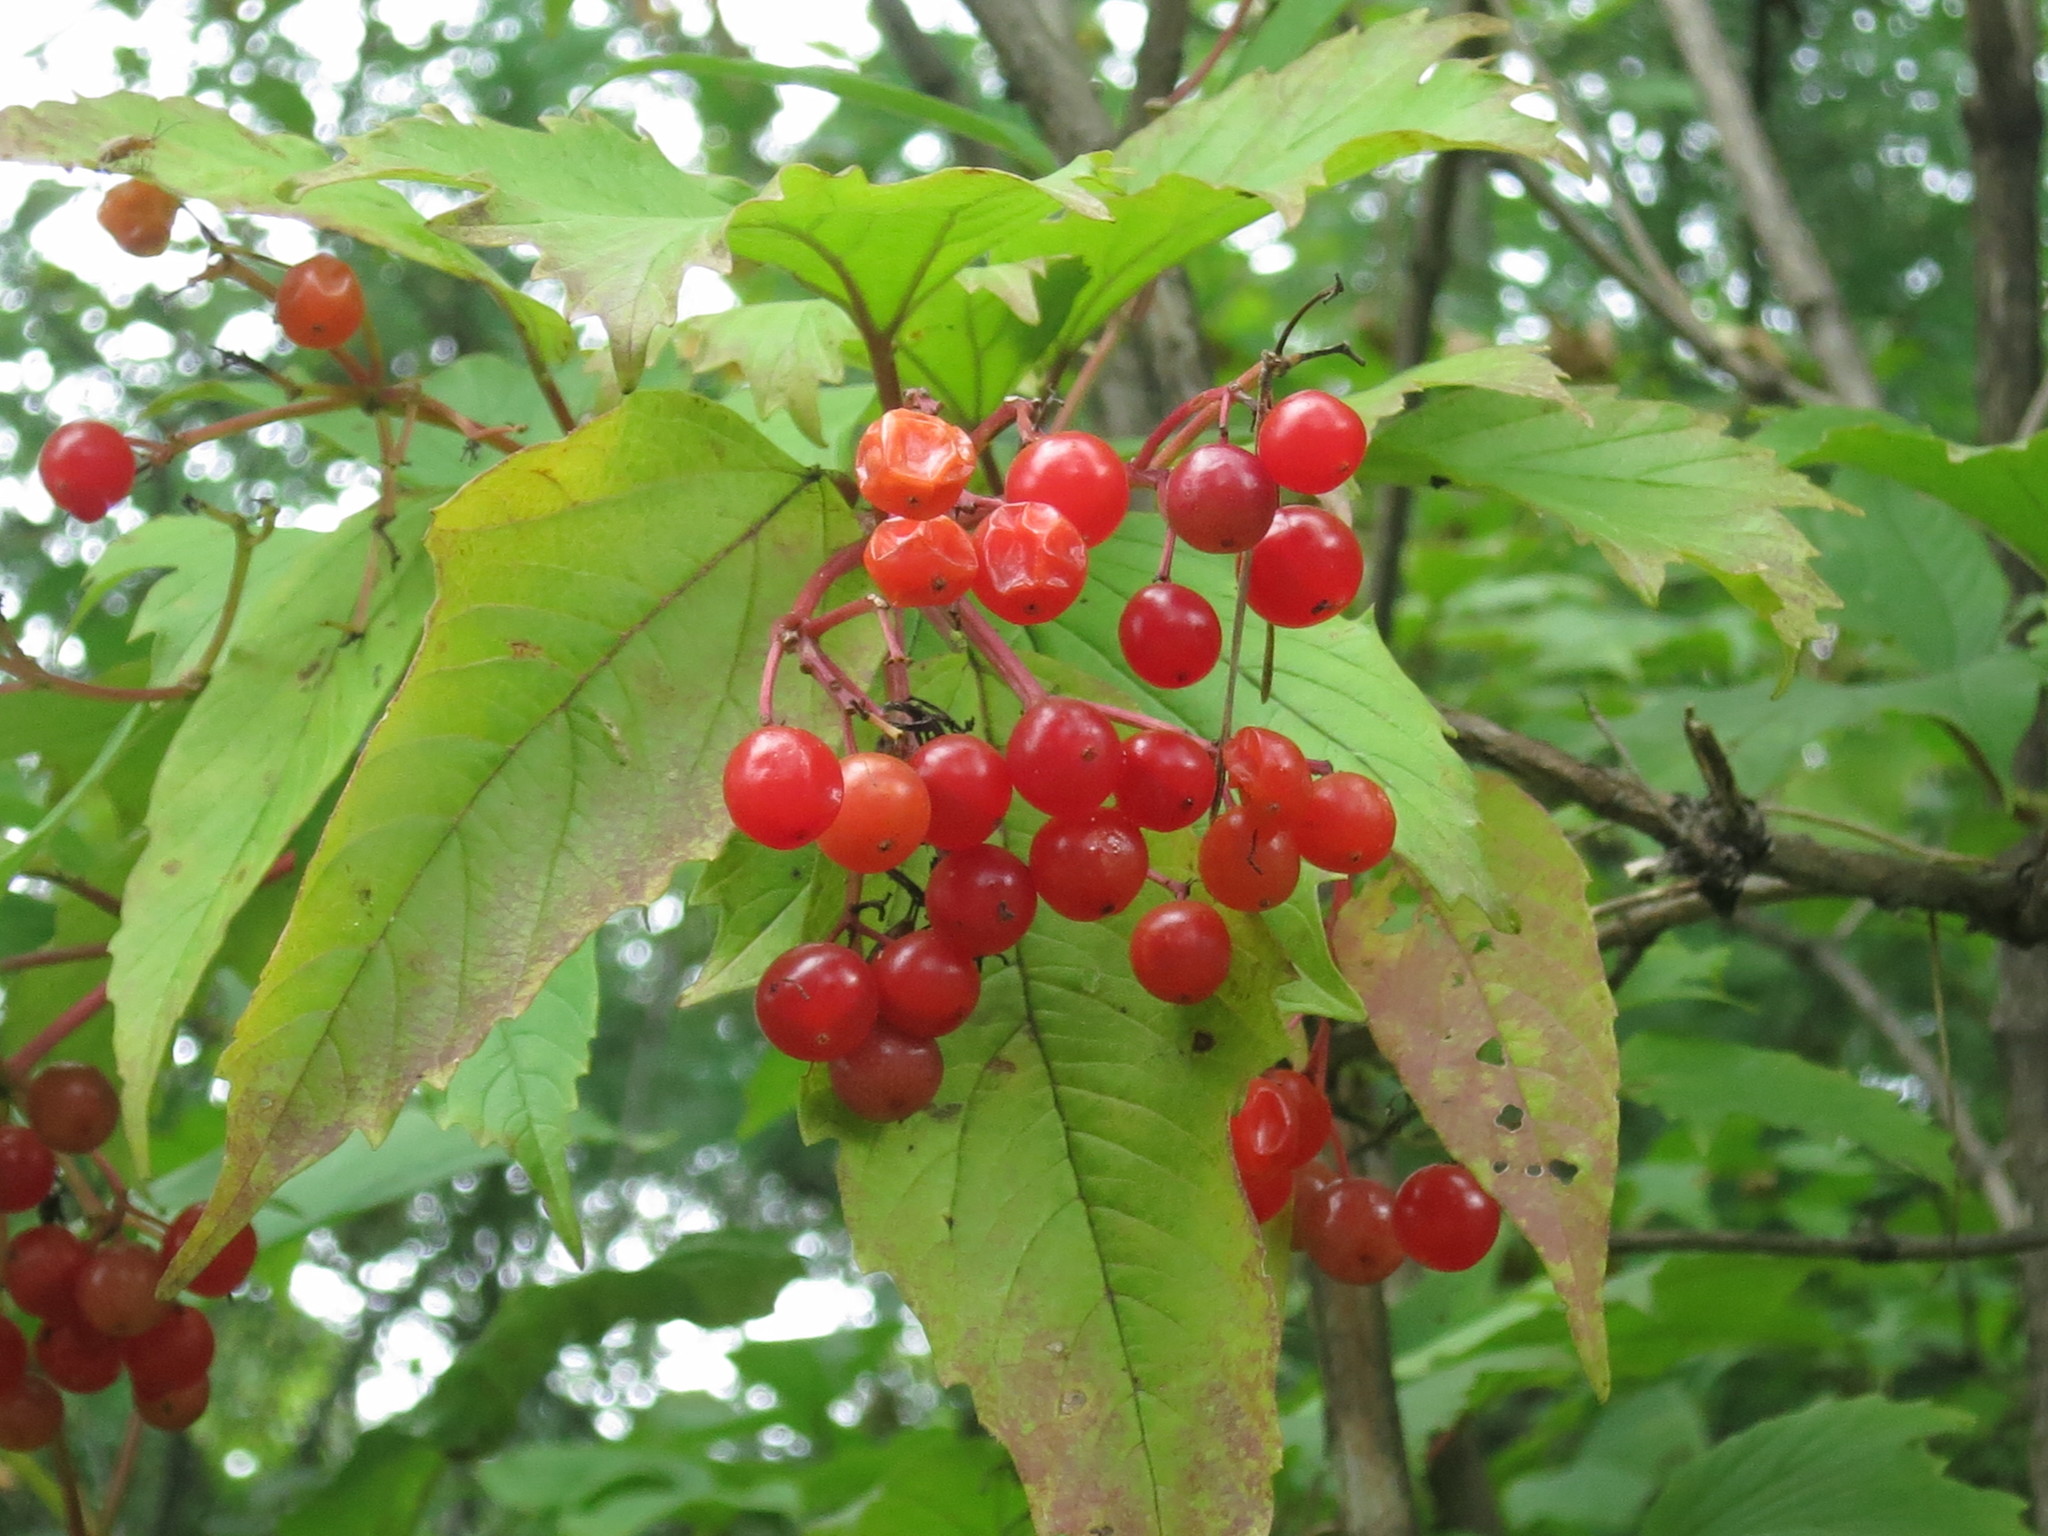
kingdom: Plantae
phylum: Tracheophyta
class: Magnoliopsida
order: Dipsacales
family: Viburnaceae
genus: Viburnum
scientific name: Viburnum sargentii
